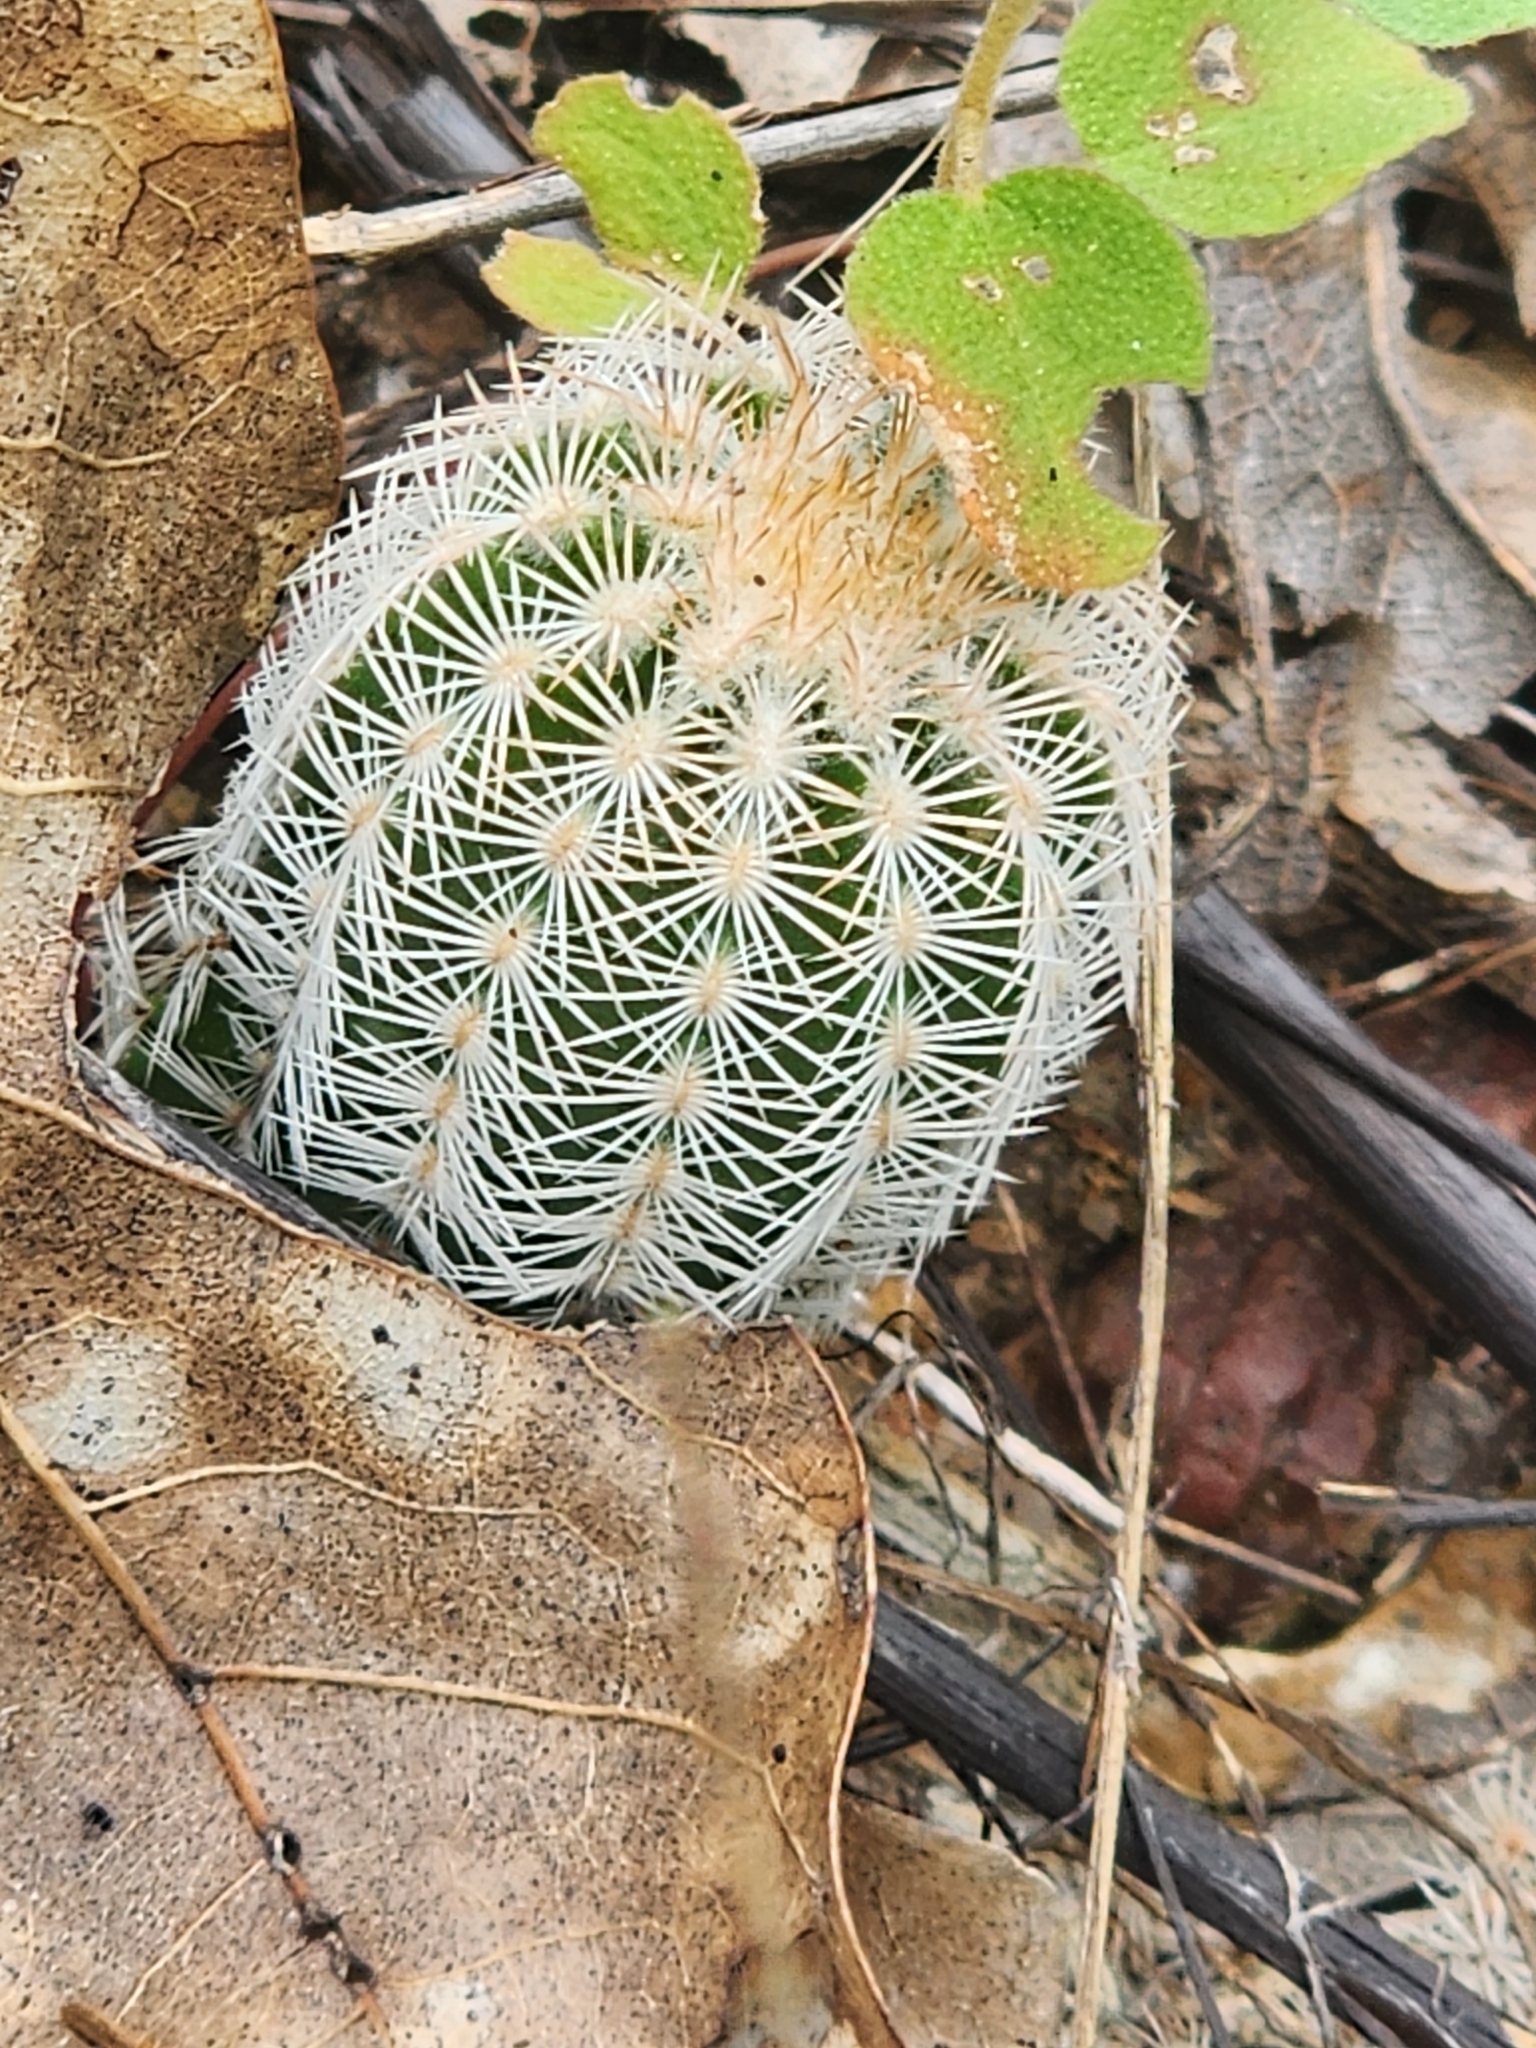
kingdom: Plantae
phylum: Tracheophyta
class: Magnoliopsida
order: Caryophyllales
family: Cactaceae
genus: Echinocereus
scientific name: Echinocereus reichenbachii
